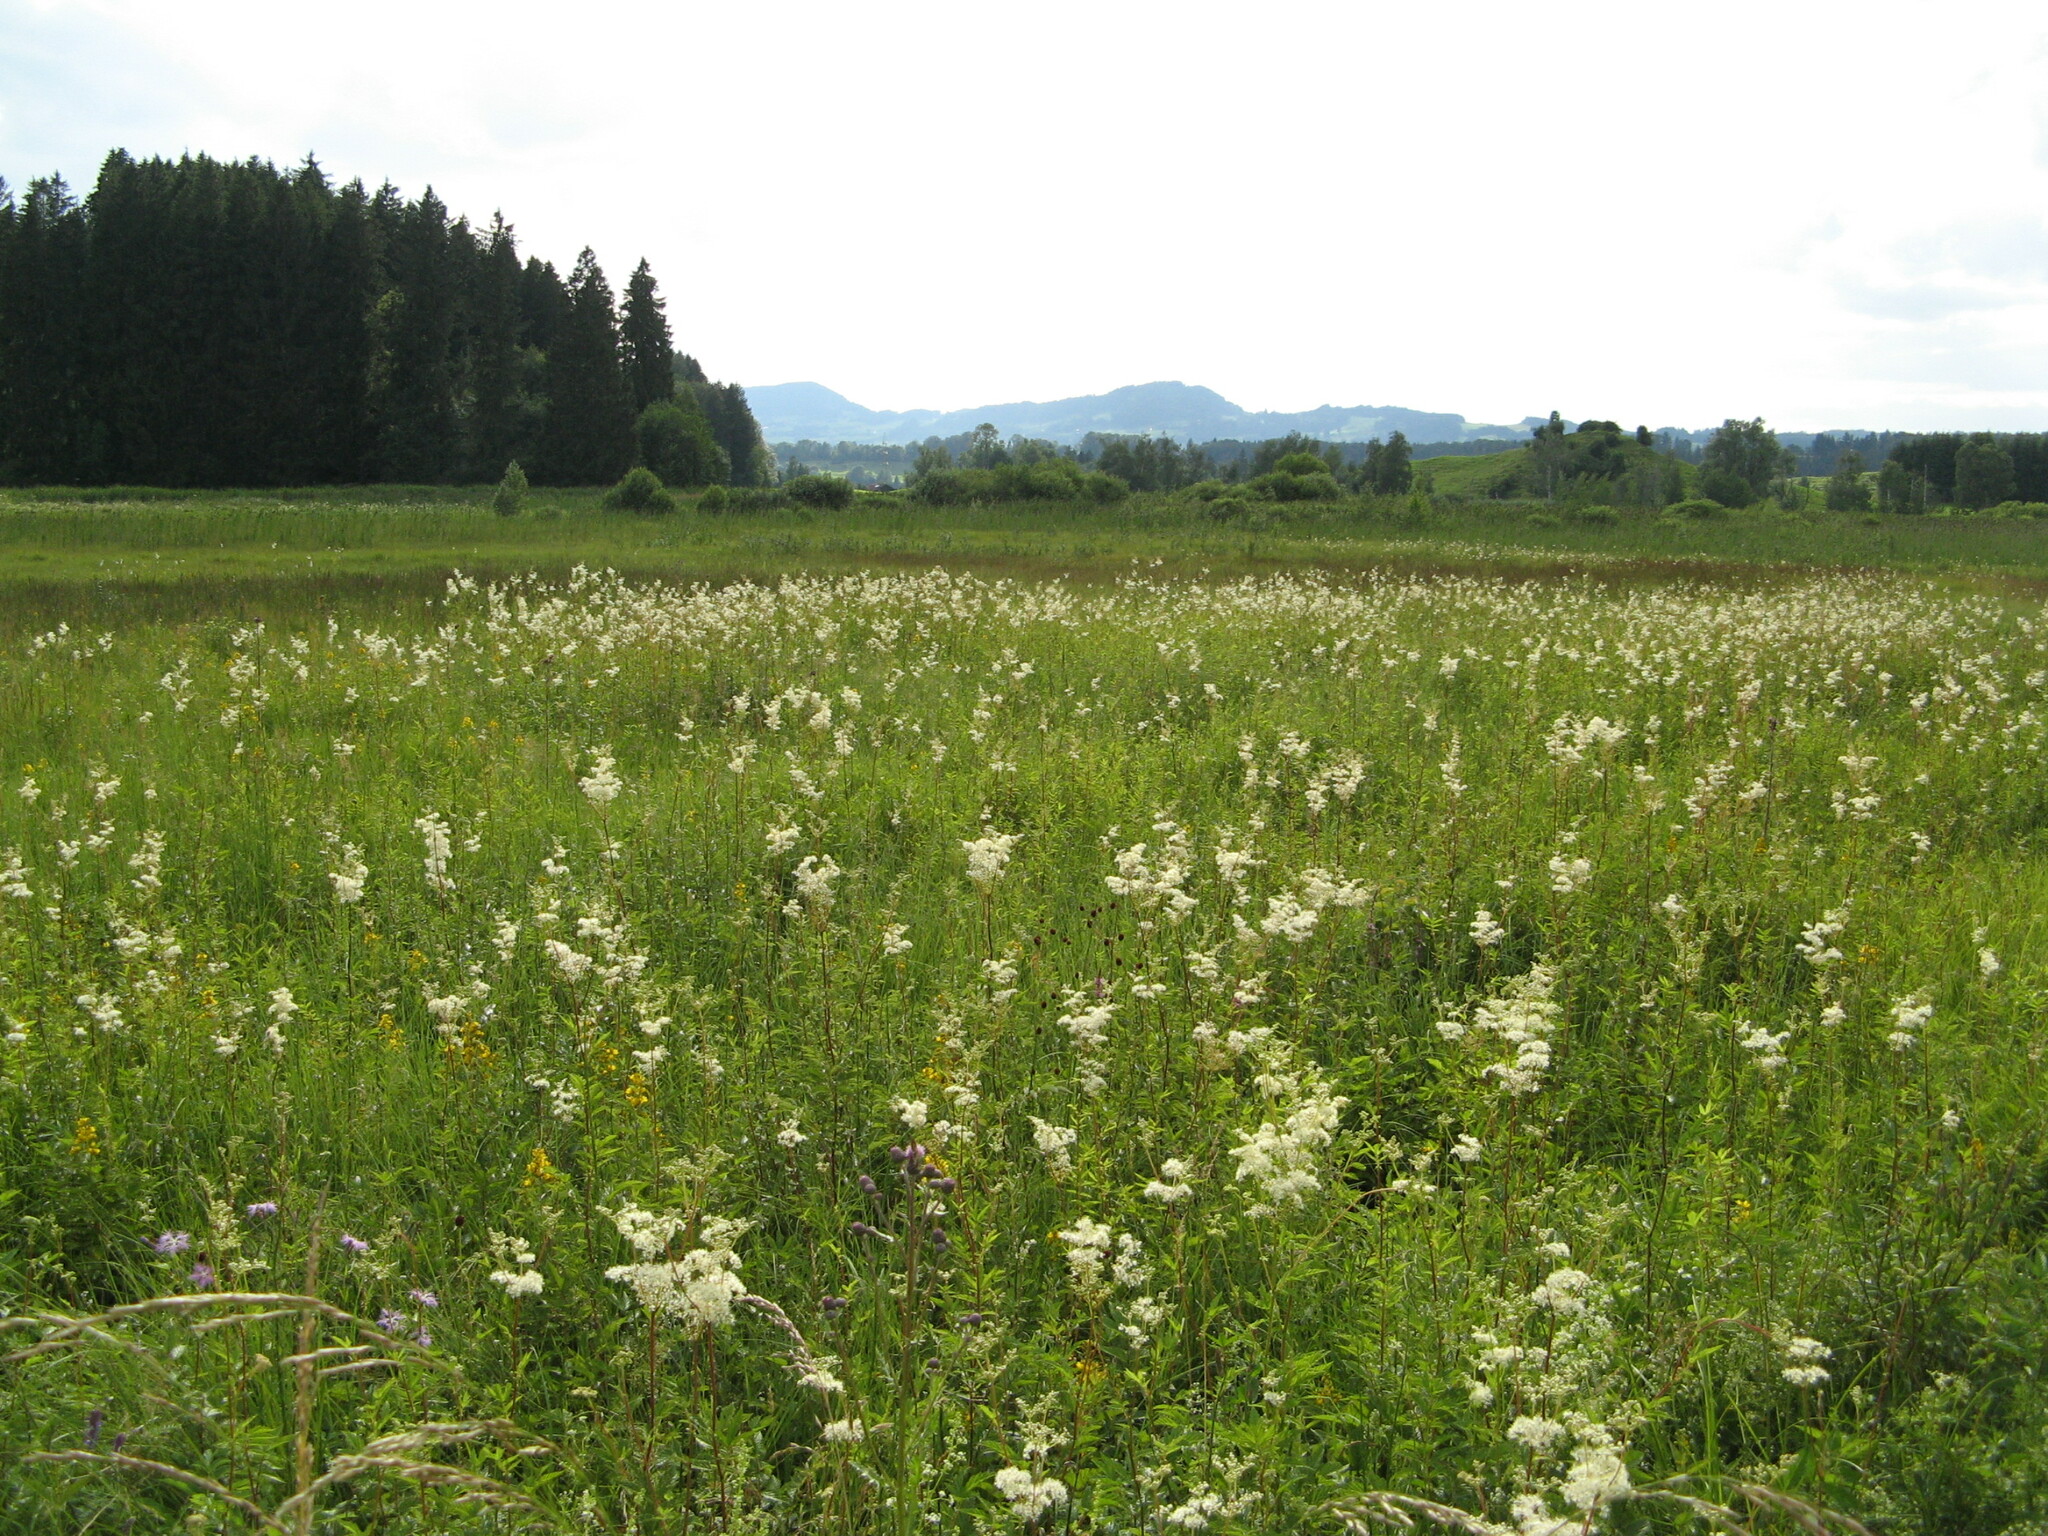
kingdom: Plantae
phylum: Tracheophyta
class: Magnoliopsida
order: Rosales
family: Rosaceae
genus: Filipendula
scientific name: Filipendula ulmaria
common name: Meadowsweet
